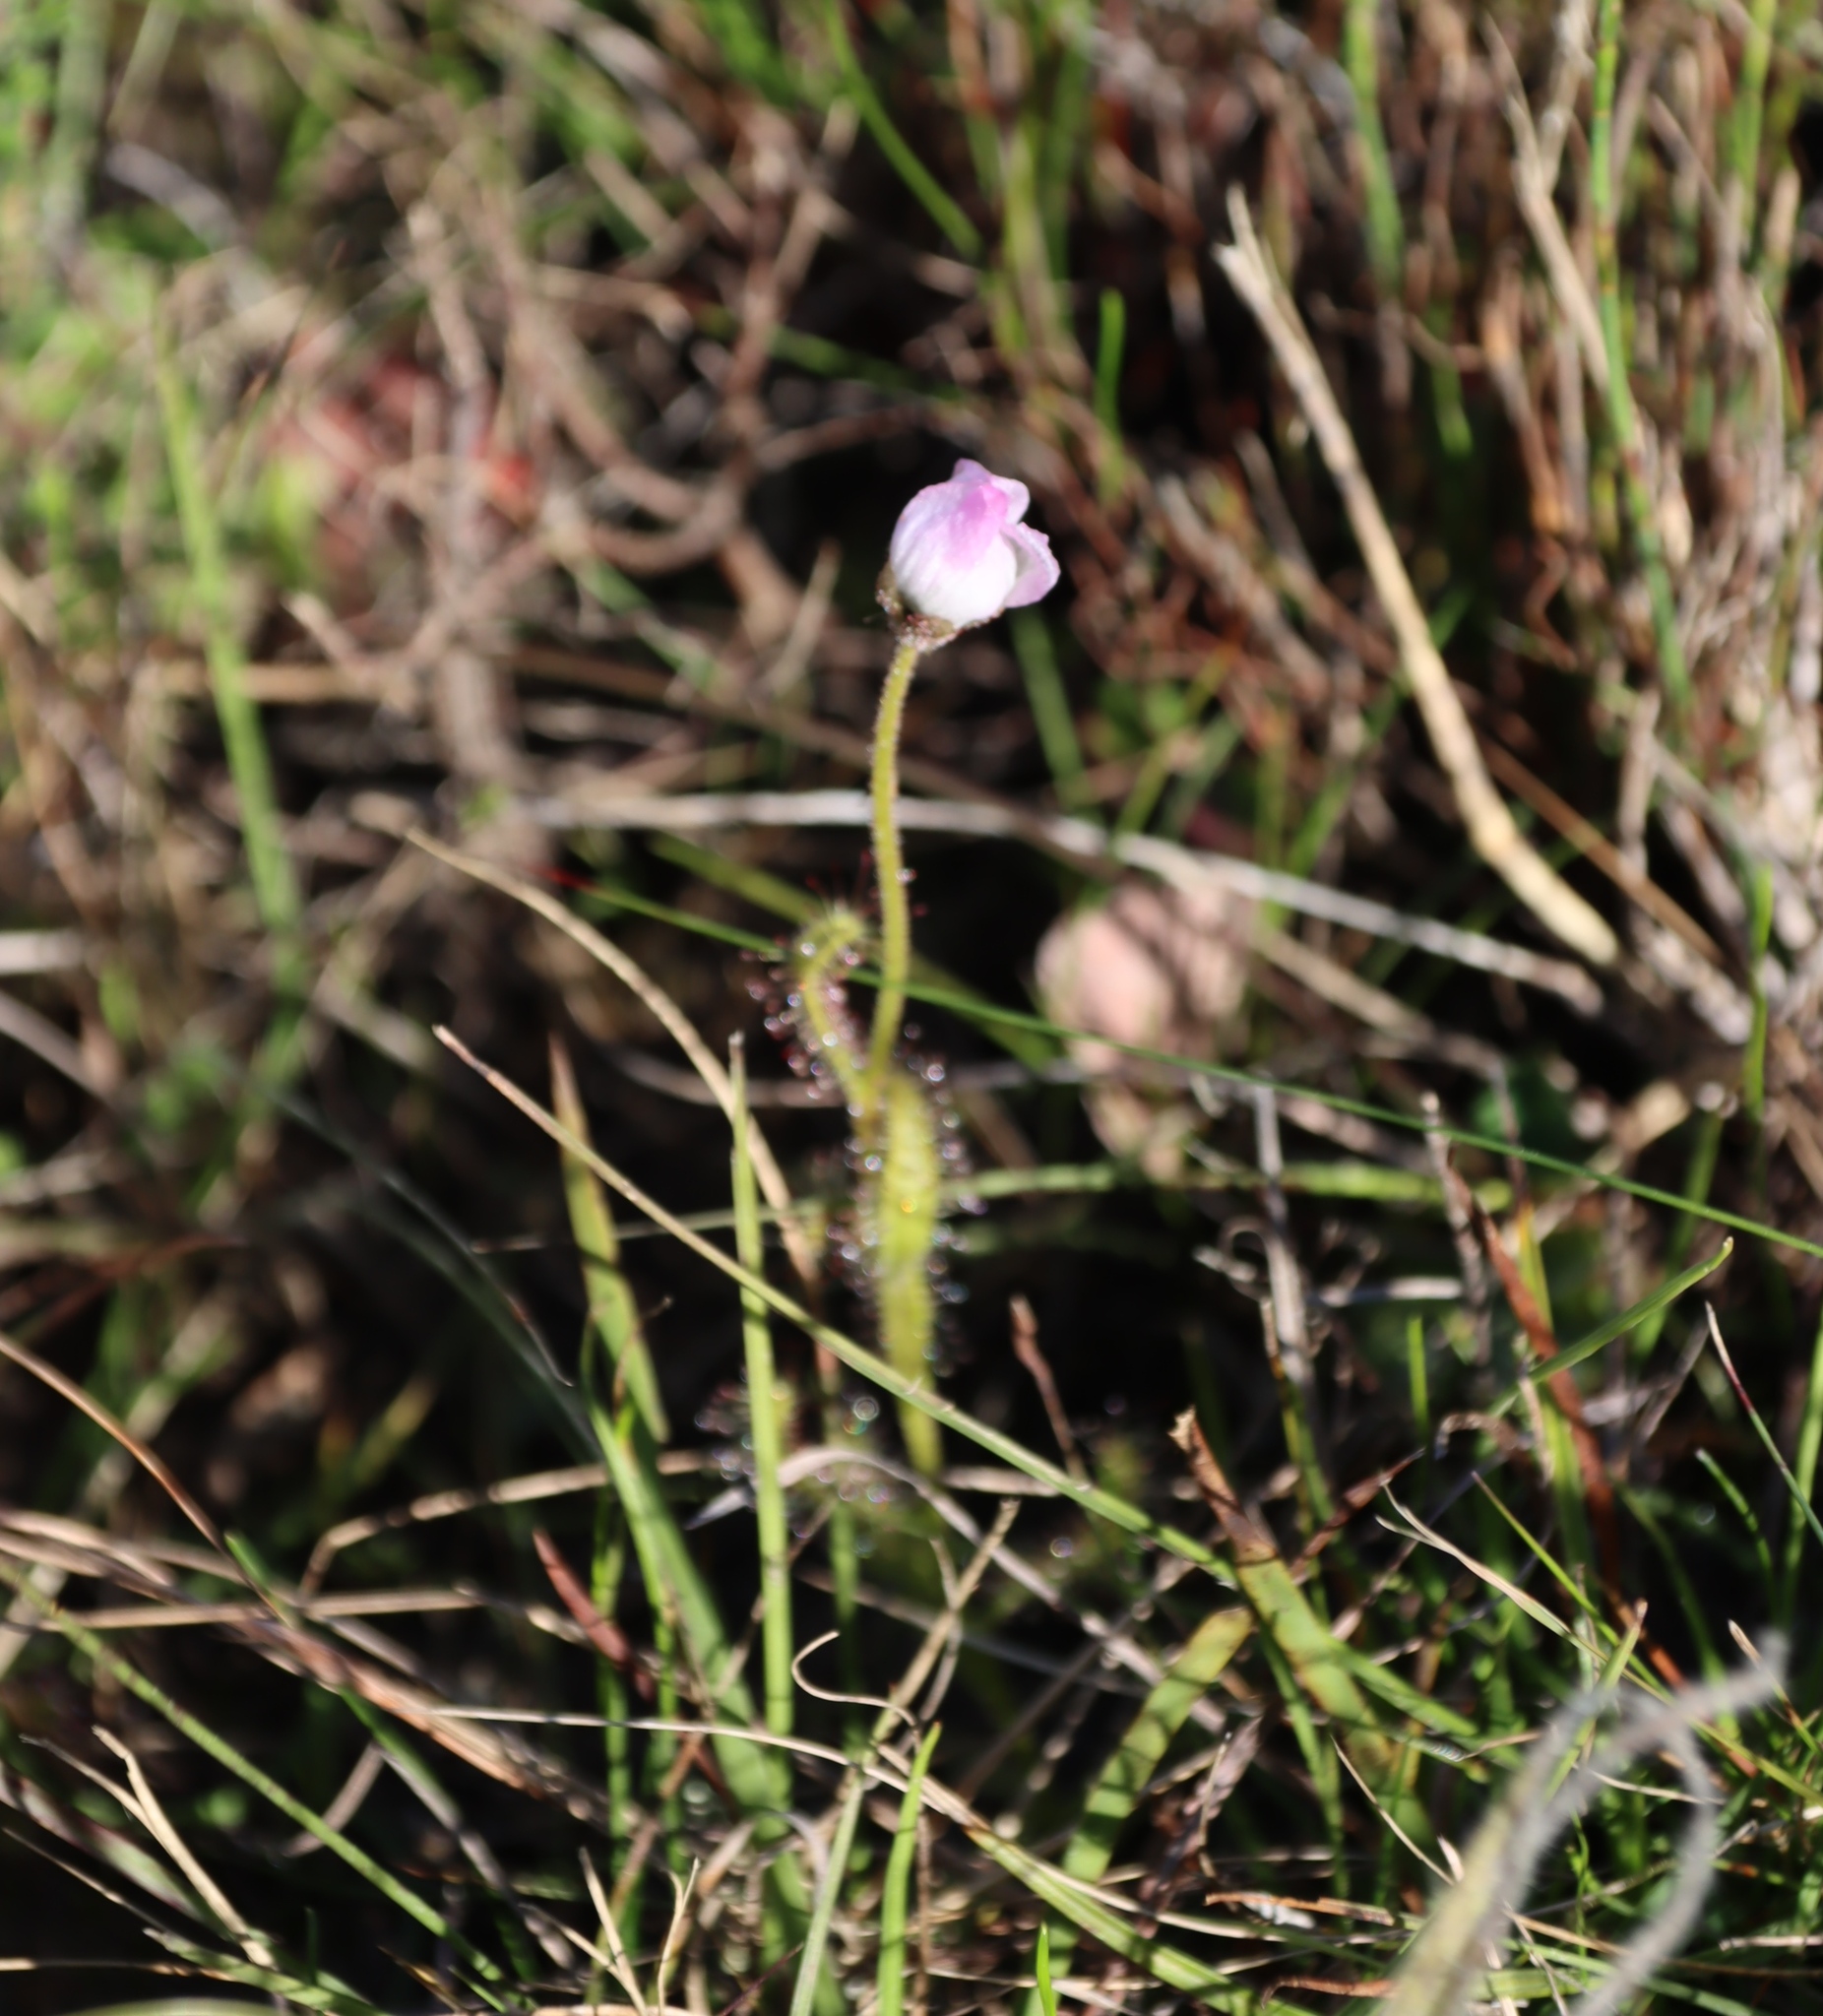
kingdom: Plantae
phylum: Tracheophyta
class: Magnoliopsida
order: Caryophyllales
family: Droseraceae
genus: Drosera
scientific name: Drosera cistiflora
